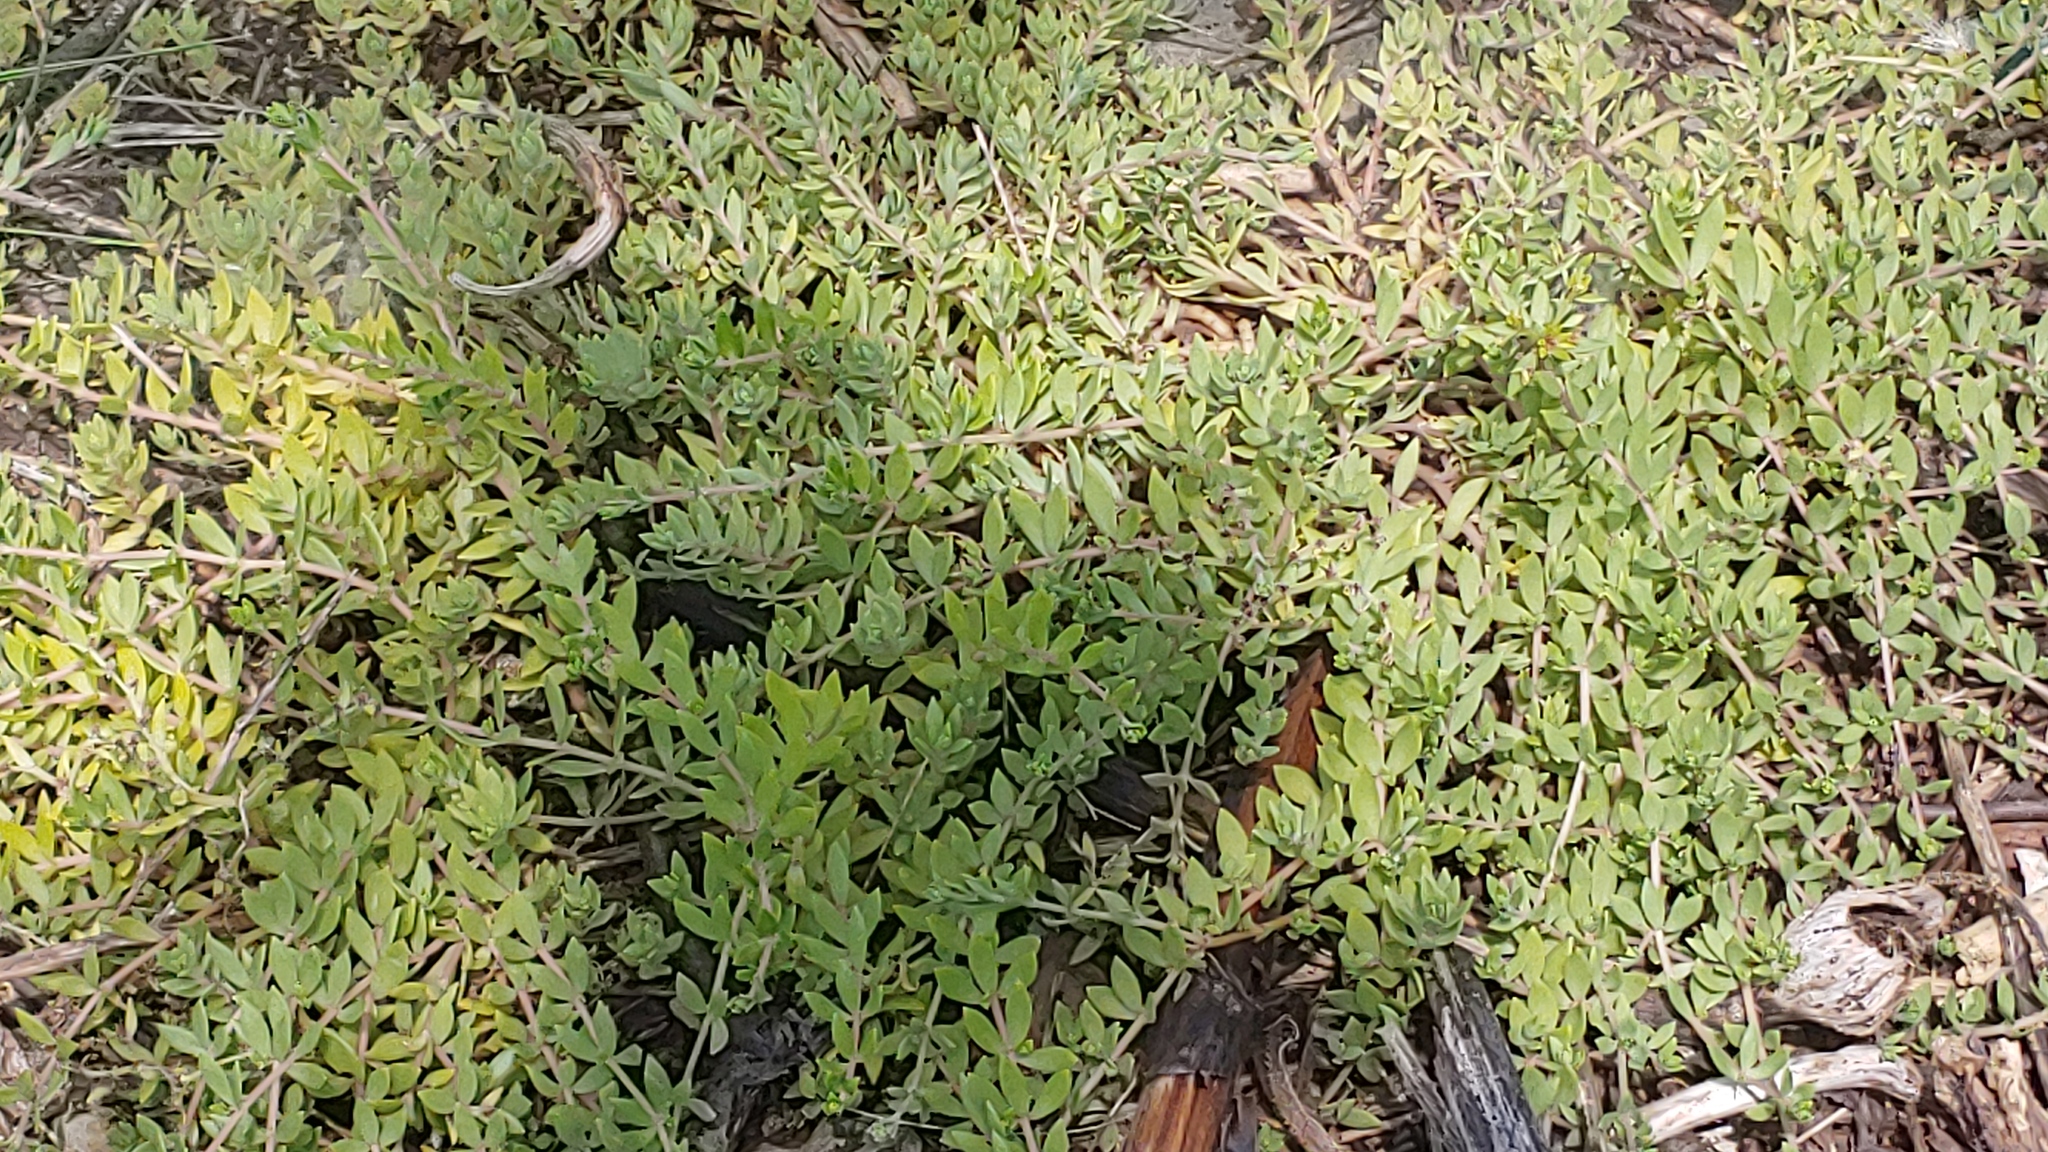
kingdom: Plantae
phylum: Tracheophyta
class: Magnoliopsida
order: Saxifragales
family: Crassulaceae
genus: Sedum
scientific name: Sedum sarmentosum
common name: Stringy stonecrop
